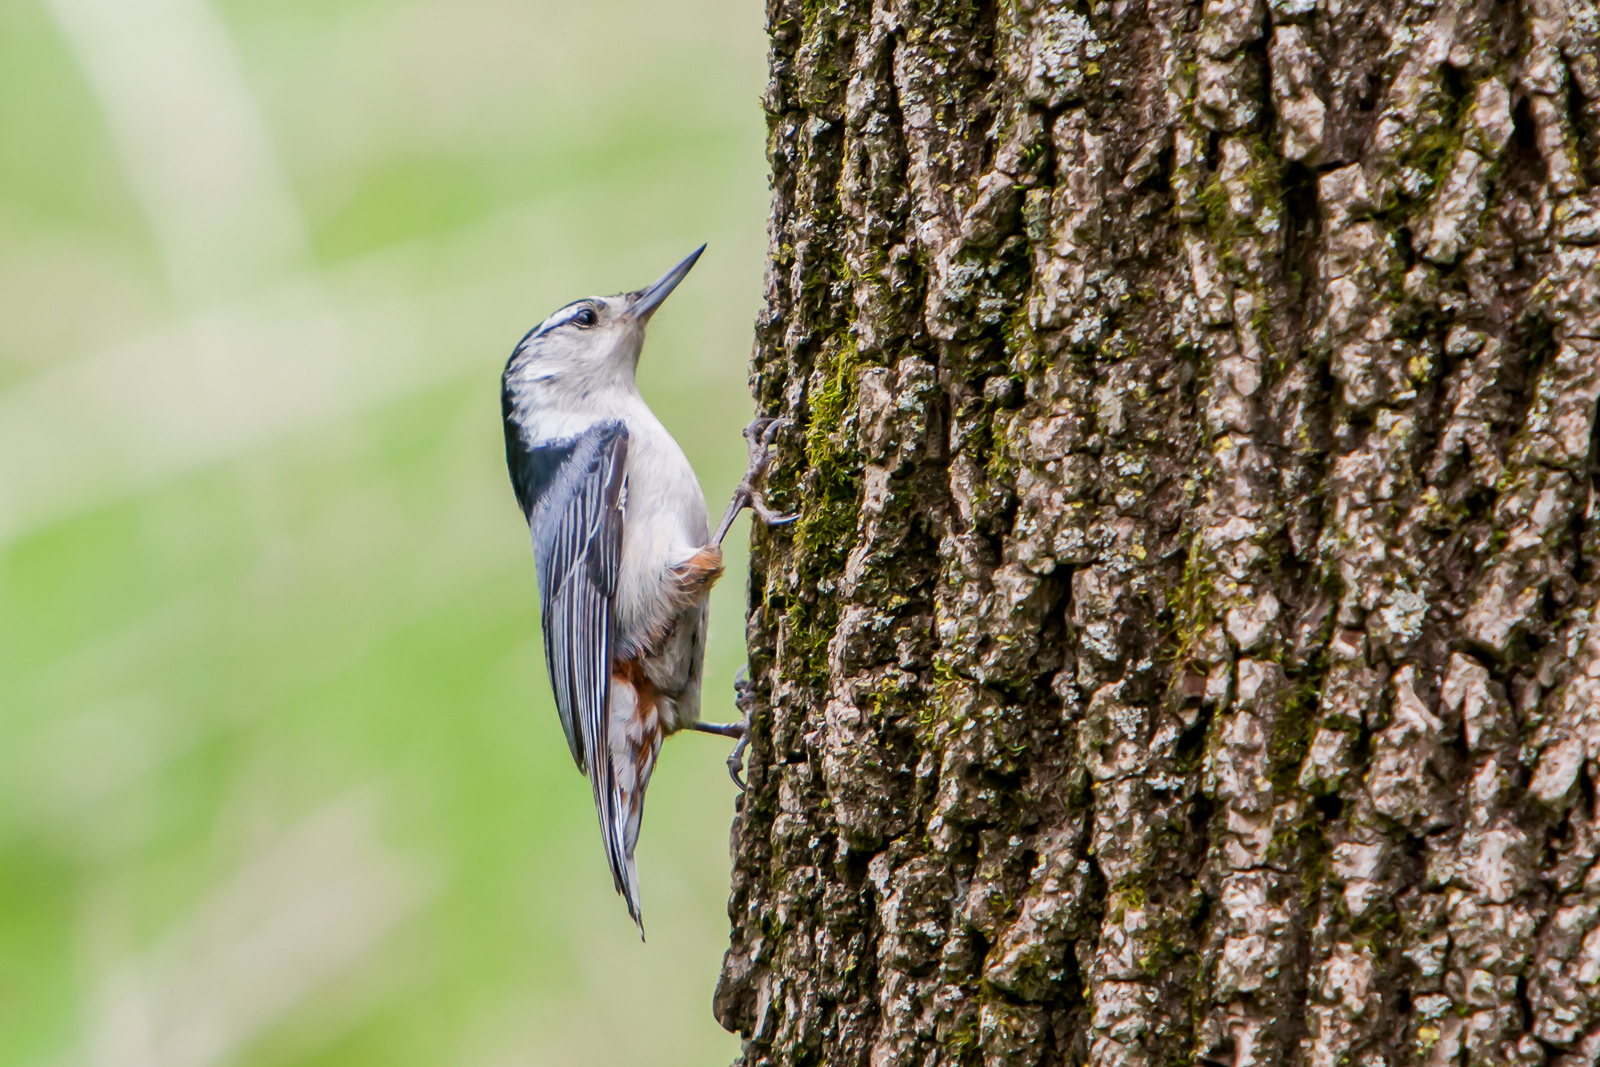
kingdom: Animalia
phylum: Chordata
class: Aves
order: Passeriformes
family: Sittidae
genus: Sitta
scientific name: Sitta carolinensis
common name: White-breasted nuthatch
